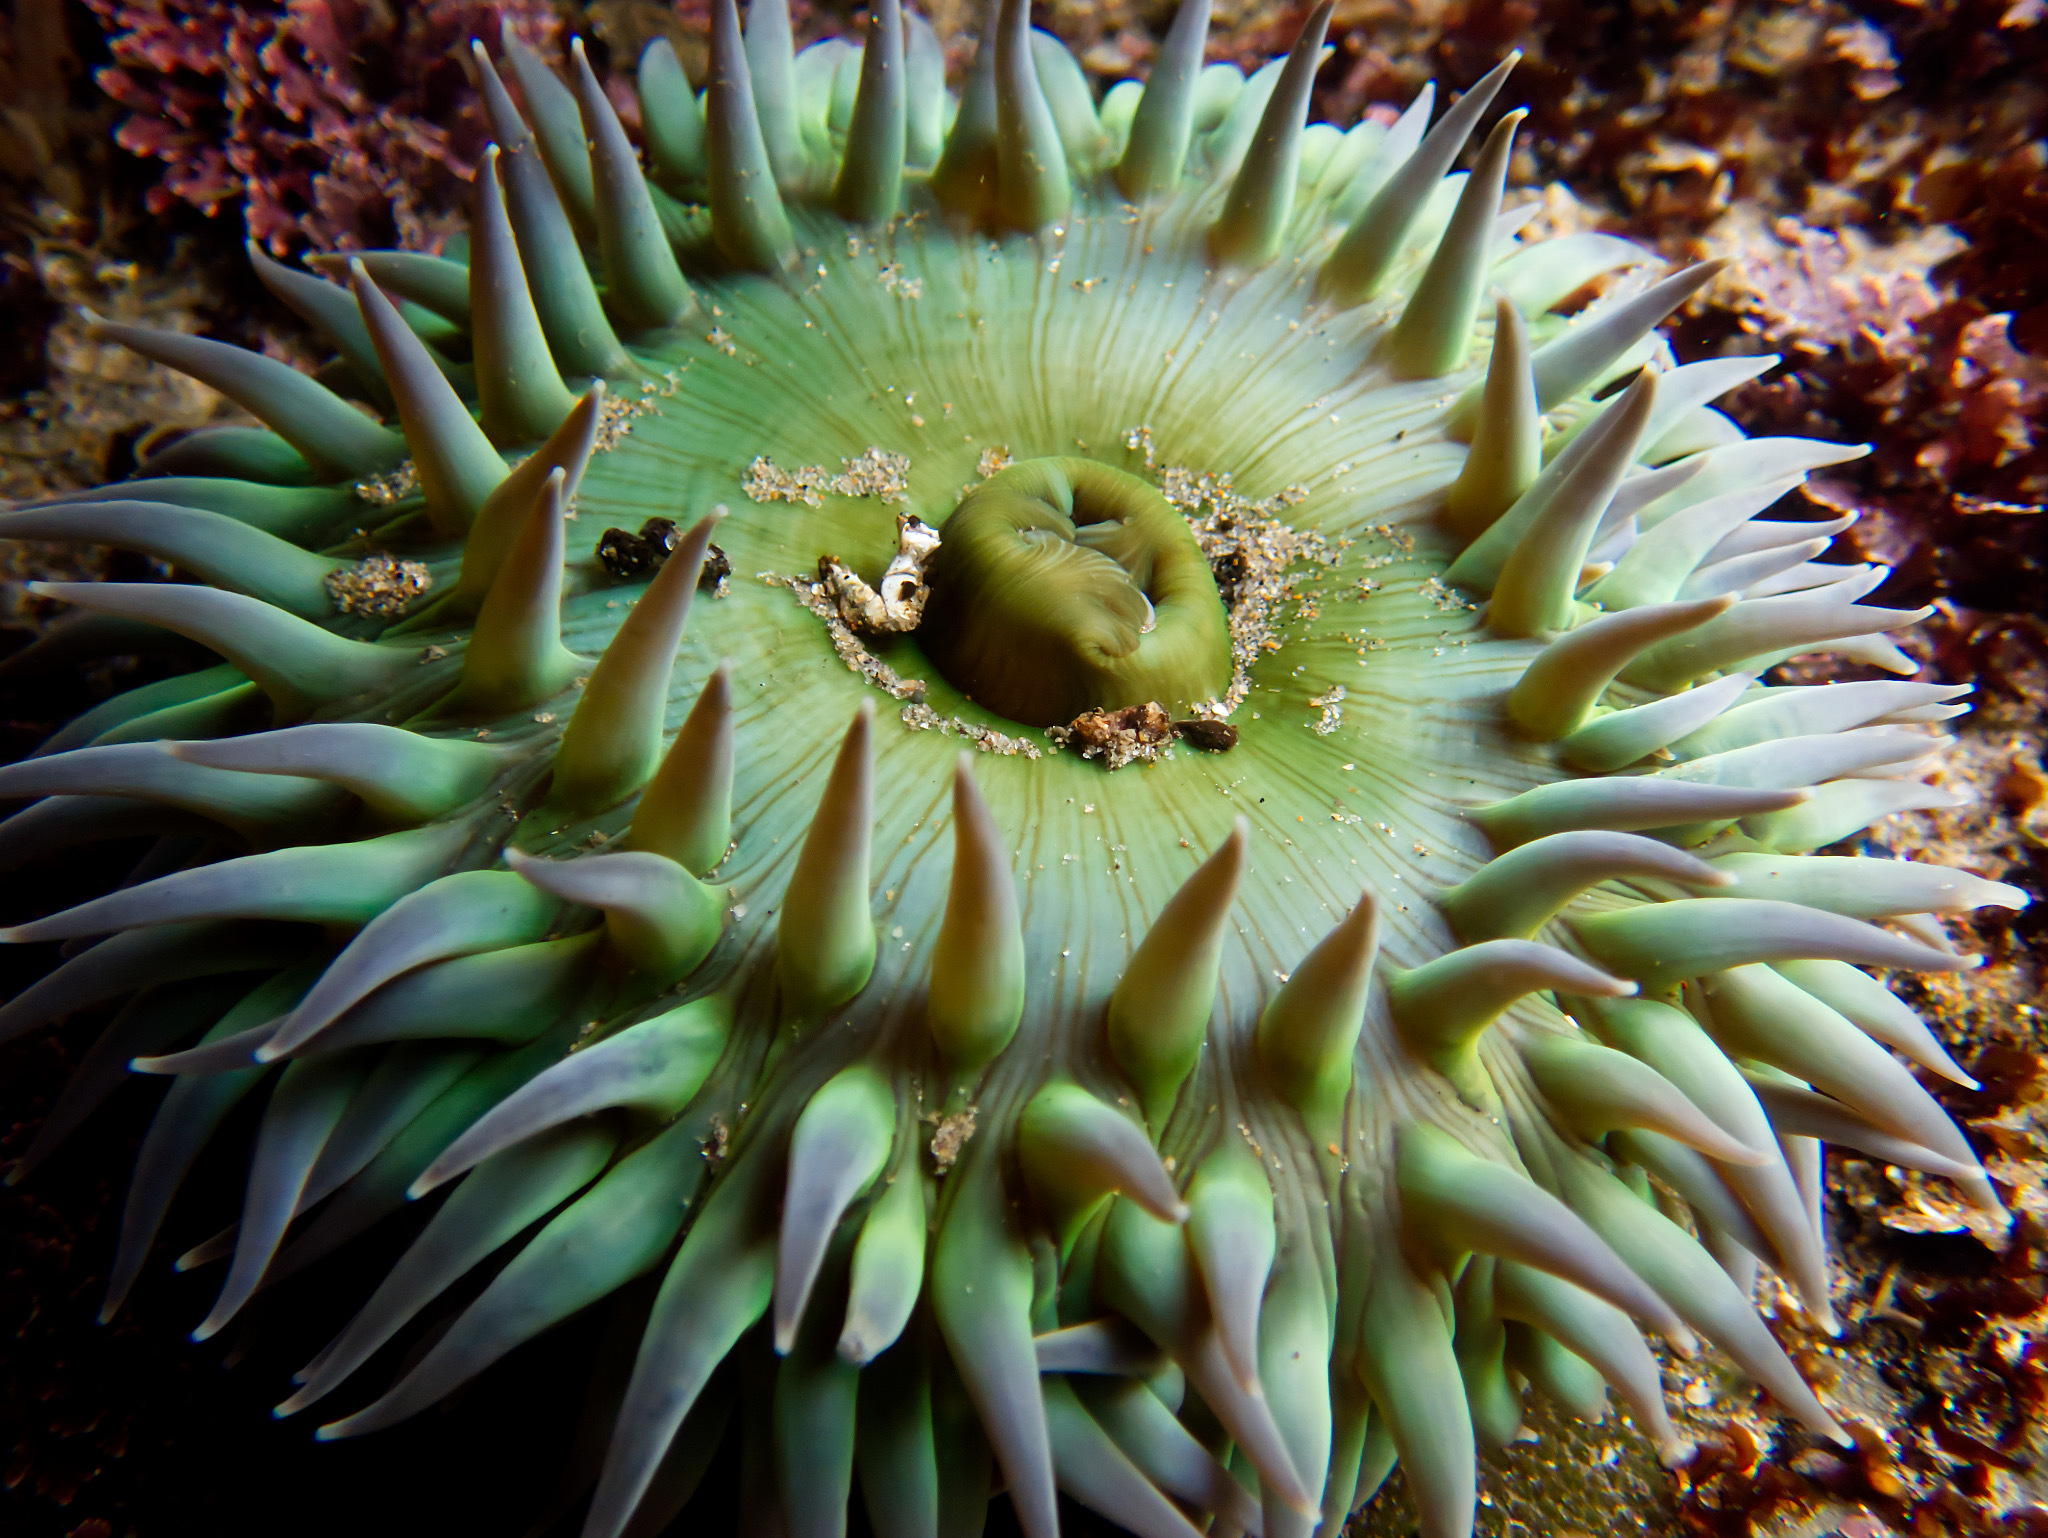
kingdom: Animalia
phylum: Cnidaria
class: Anthozoa
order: Actiniaria
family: Actiniidae
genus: Anthopleura
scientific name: Anthopleura xanthogrammica
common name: Giant green anemone
